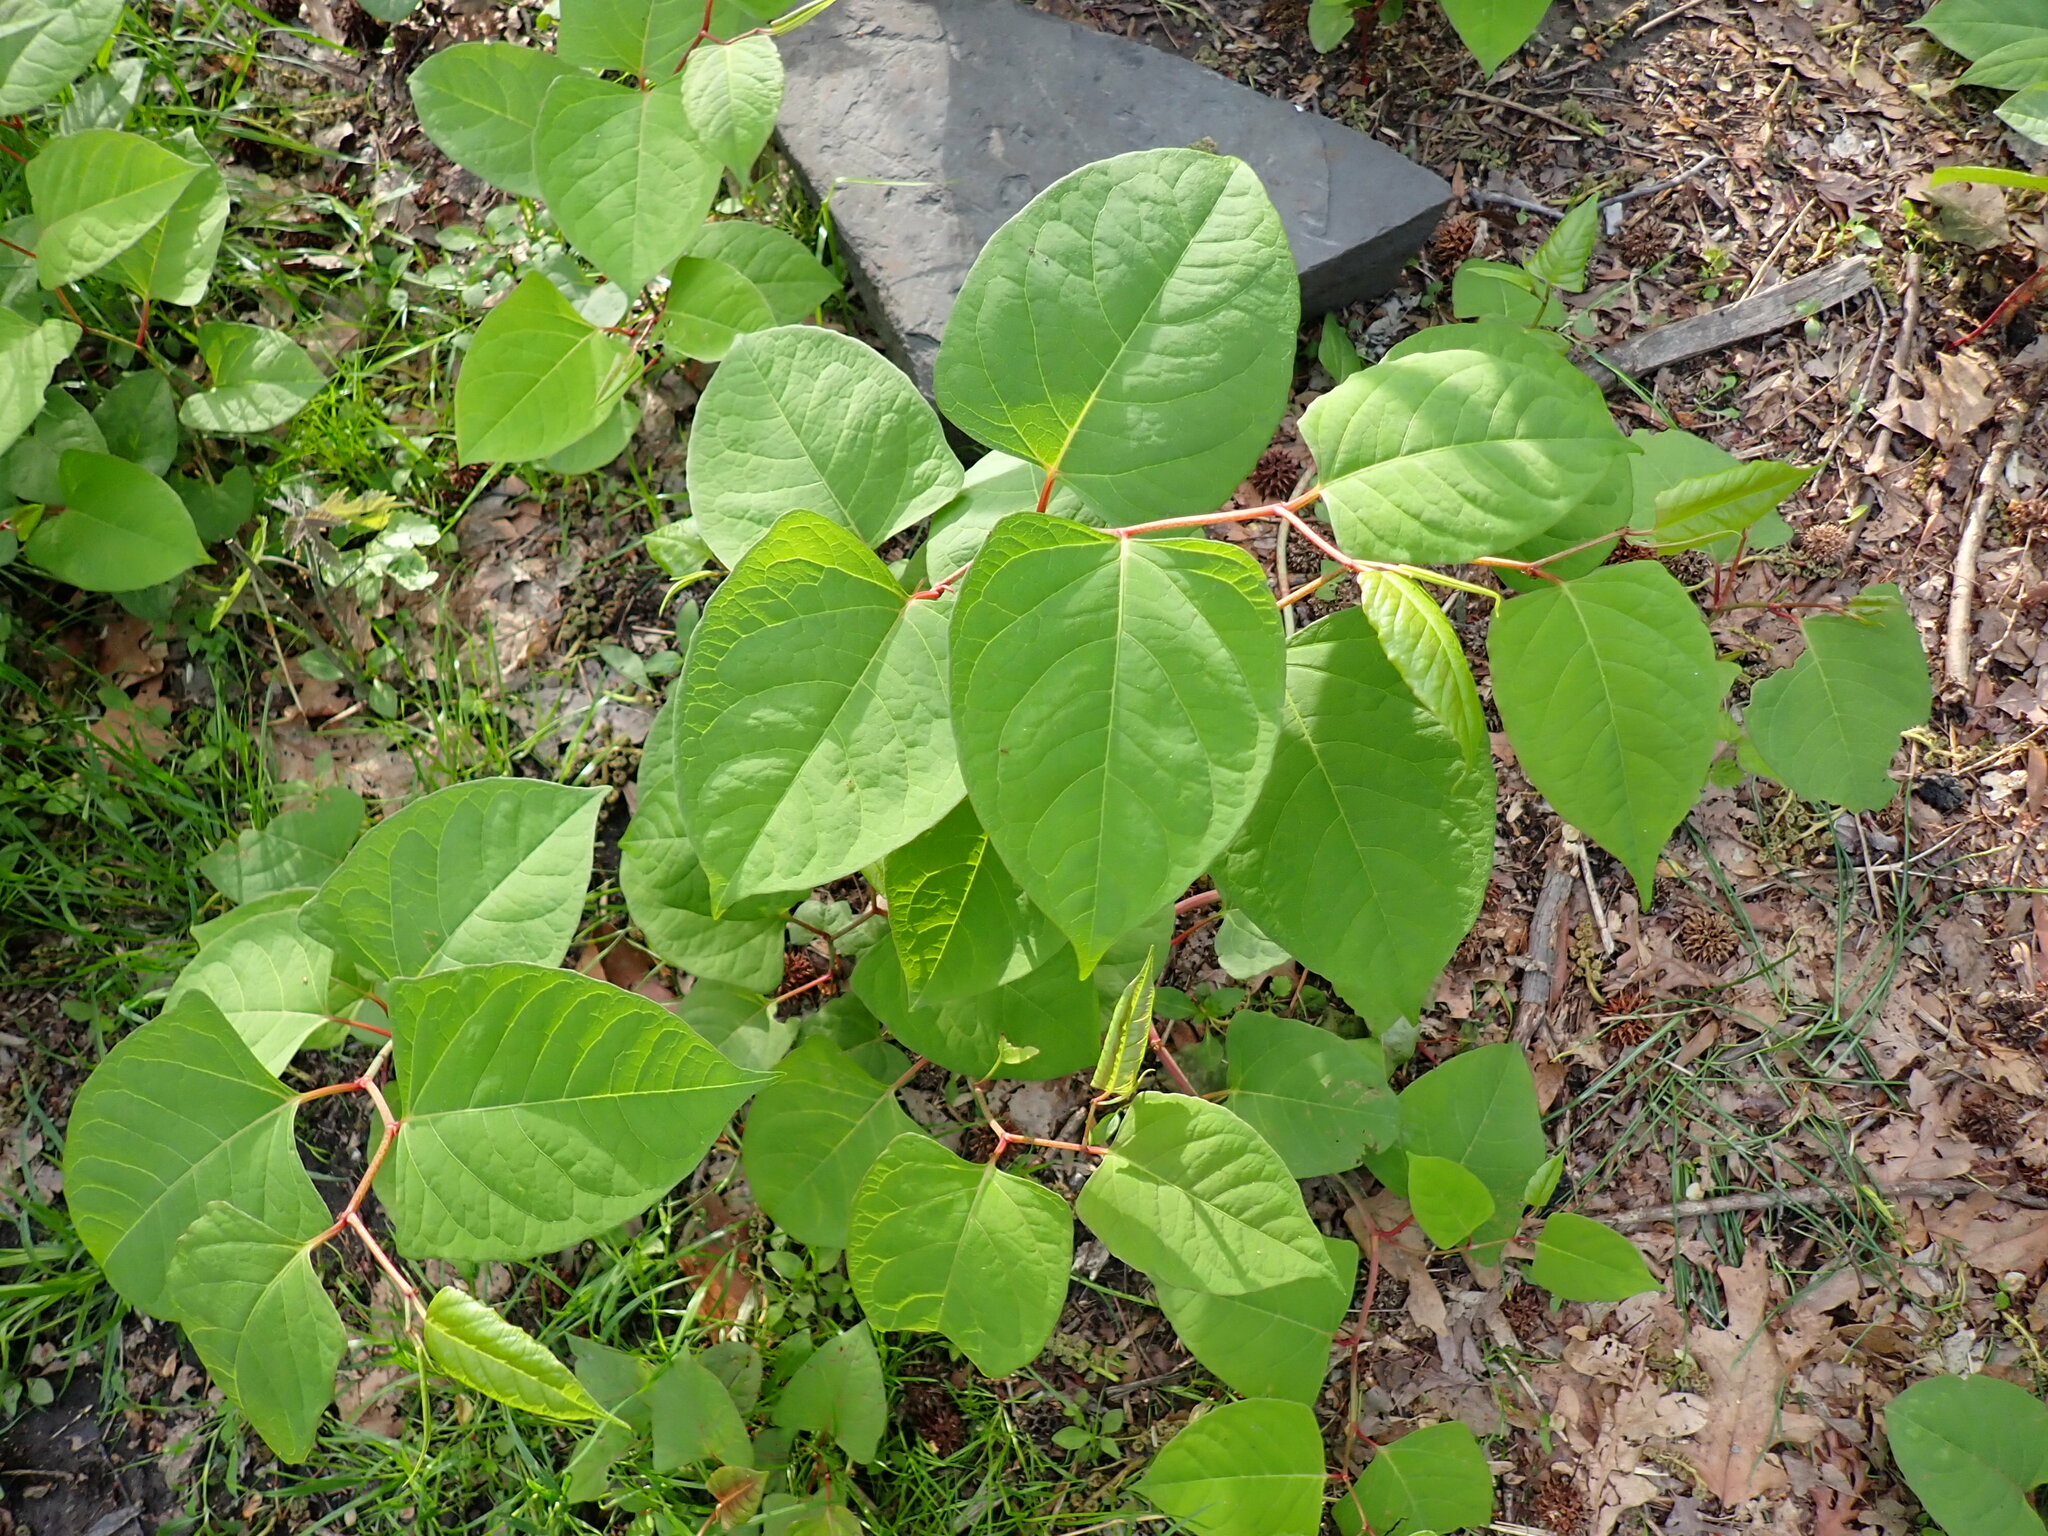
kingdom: Plantae
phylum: Tracheophyta
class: Magnoliopsida
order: Caryophyllales
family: Polygonaceae
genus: Reynoutria
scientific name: Reynoutria japonica
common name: Japanese knotweed
